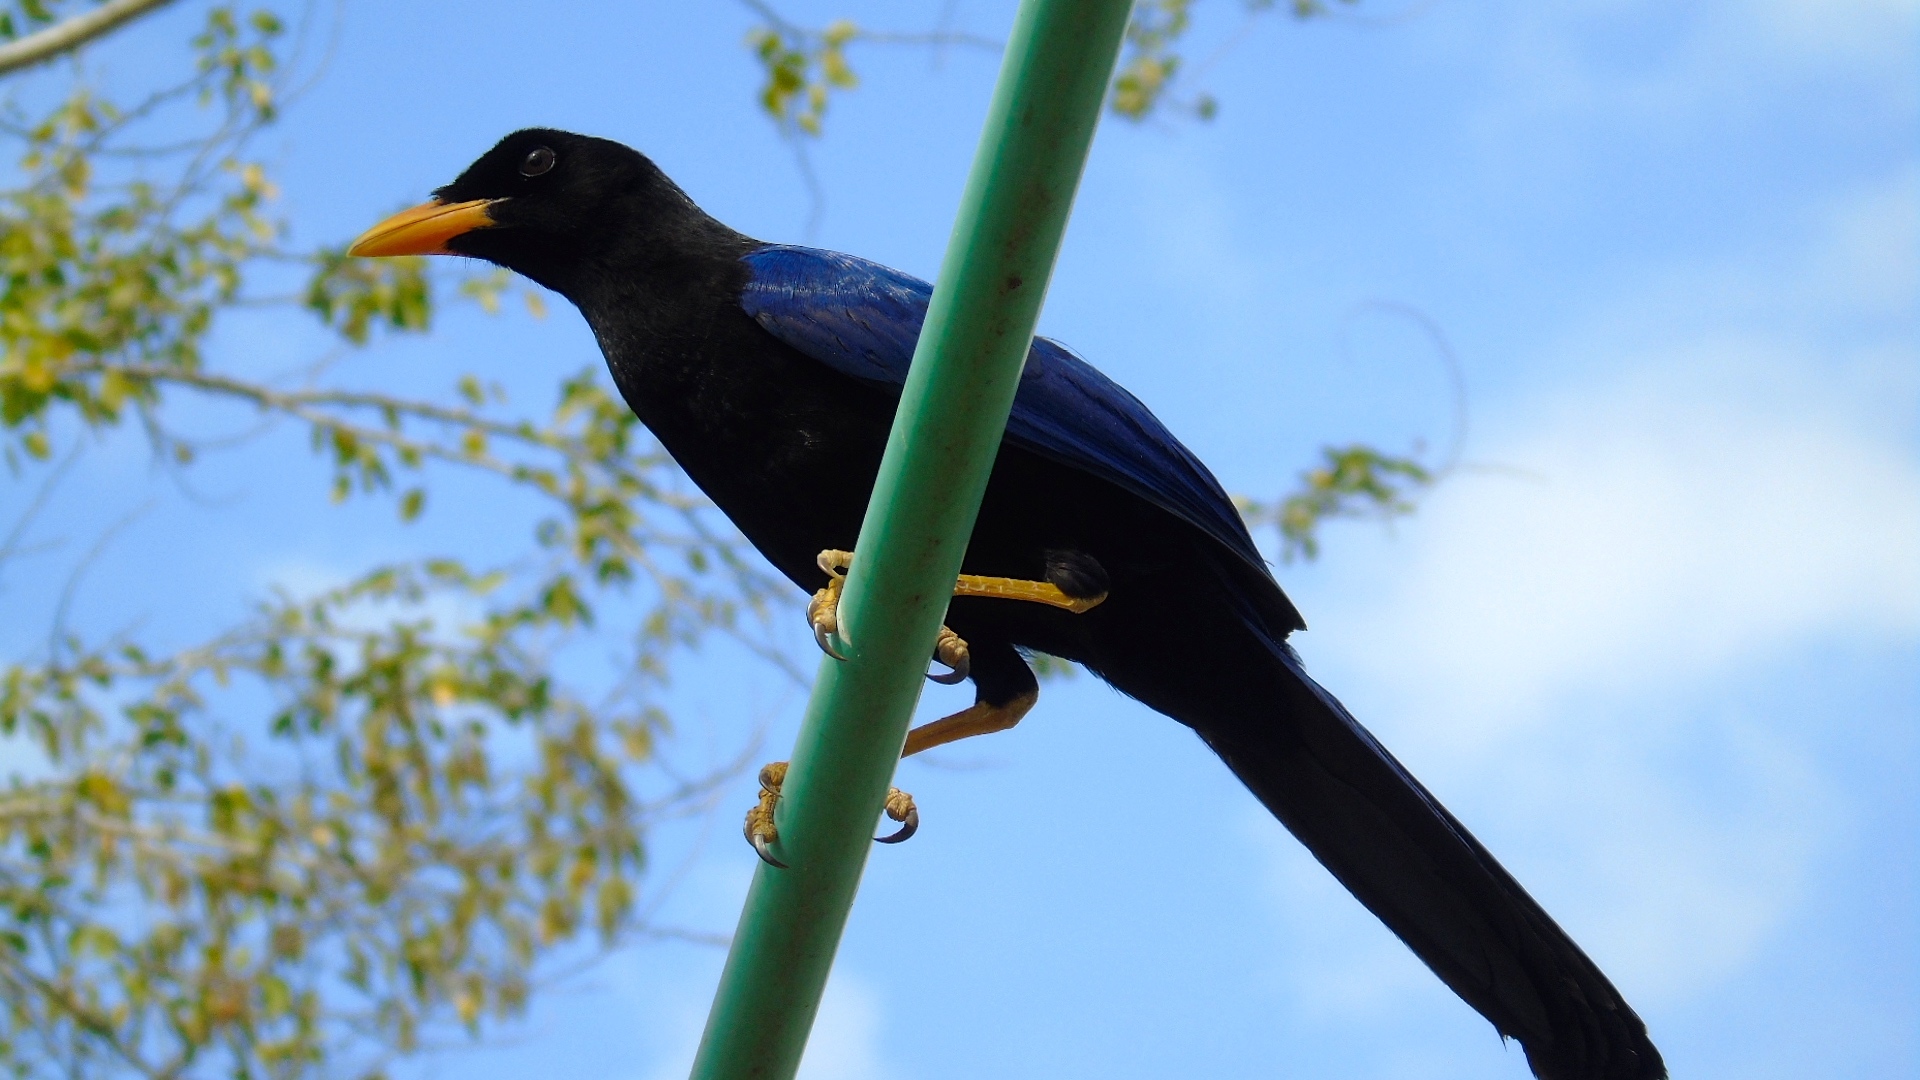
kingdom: Animalia
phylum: Chordata
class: Aves
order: Passeriformes
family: Corvidae
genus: Cyanocorax
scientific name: Cyanocorax beecheii
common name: Purplish-backed jay
